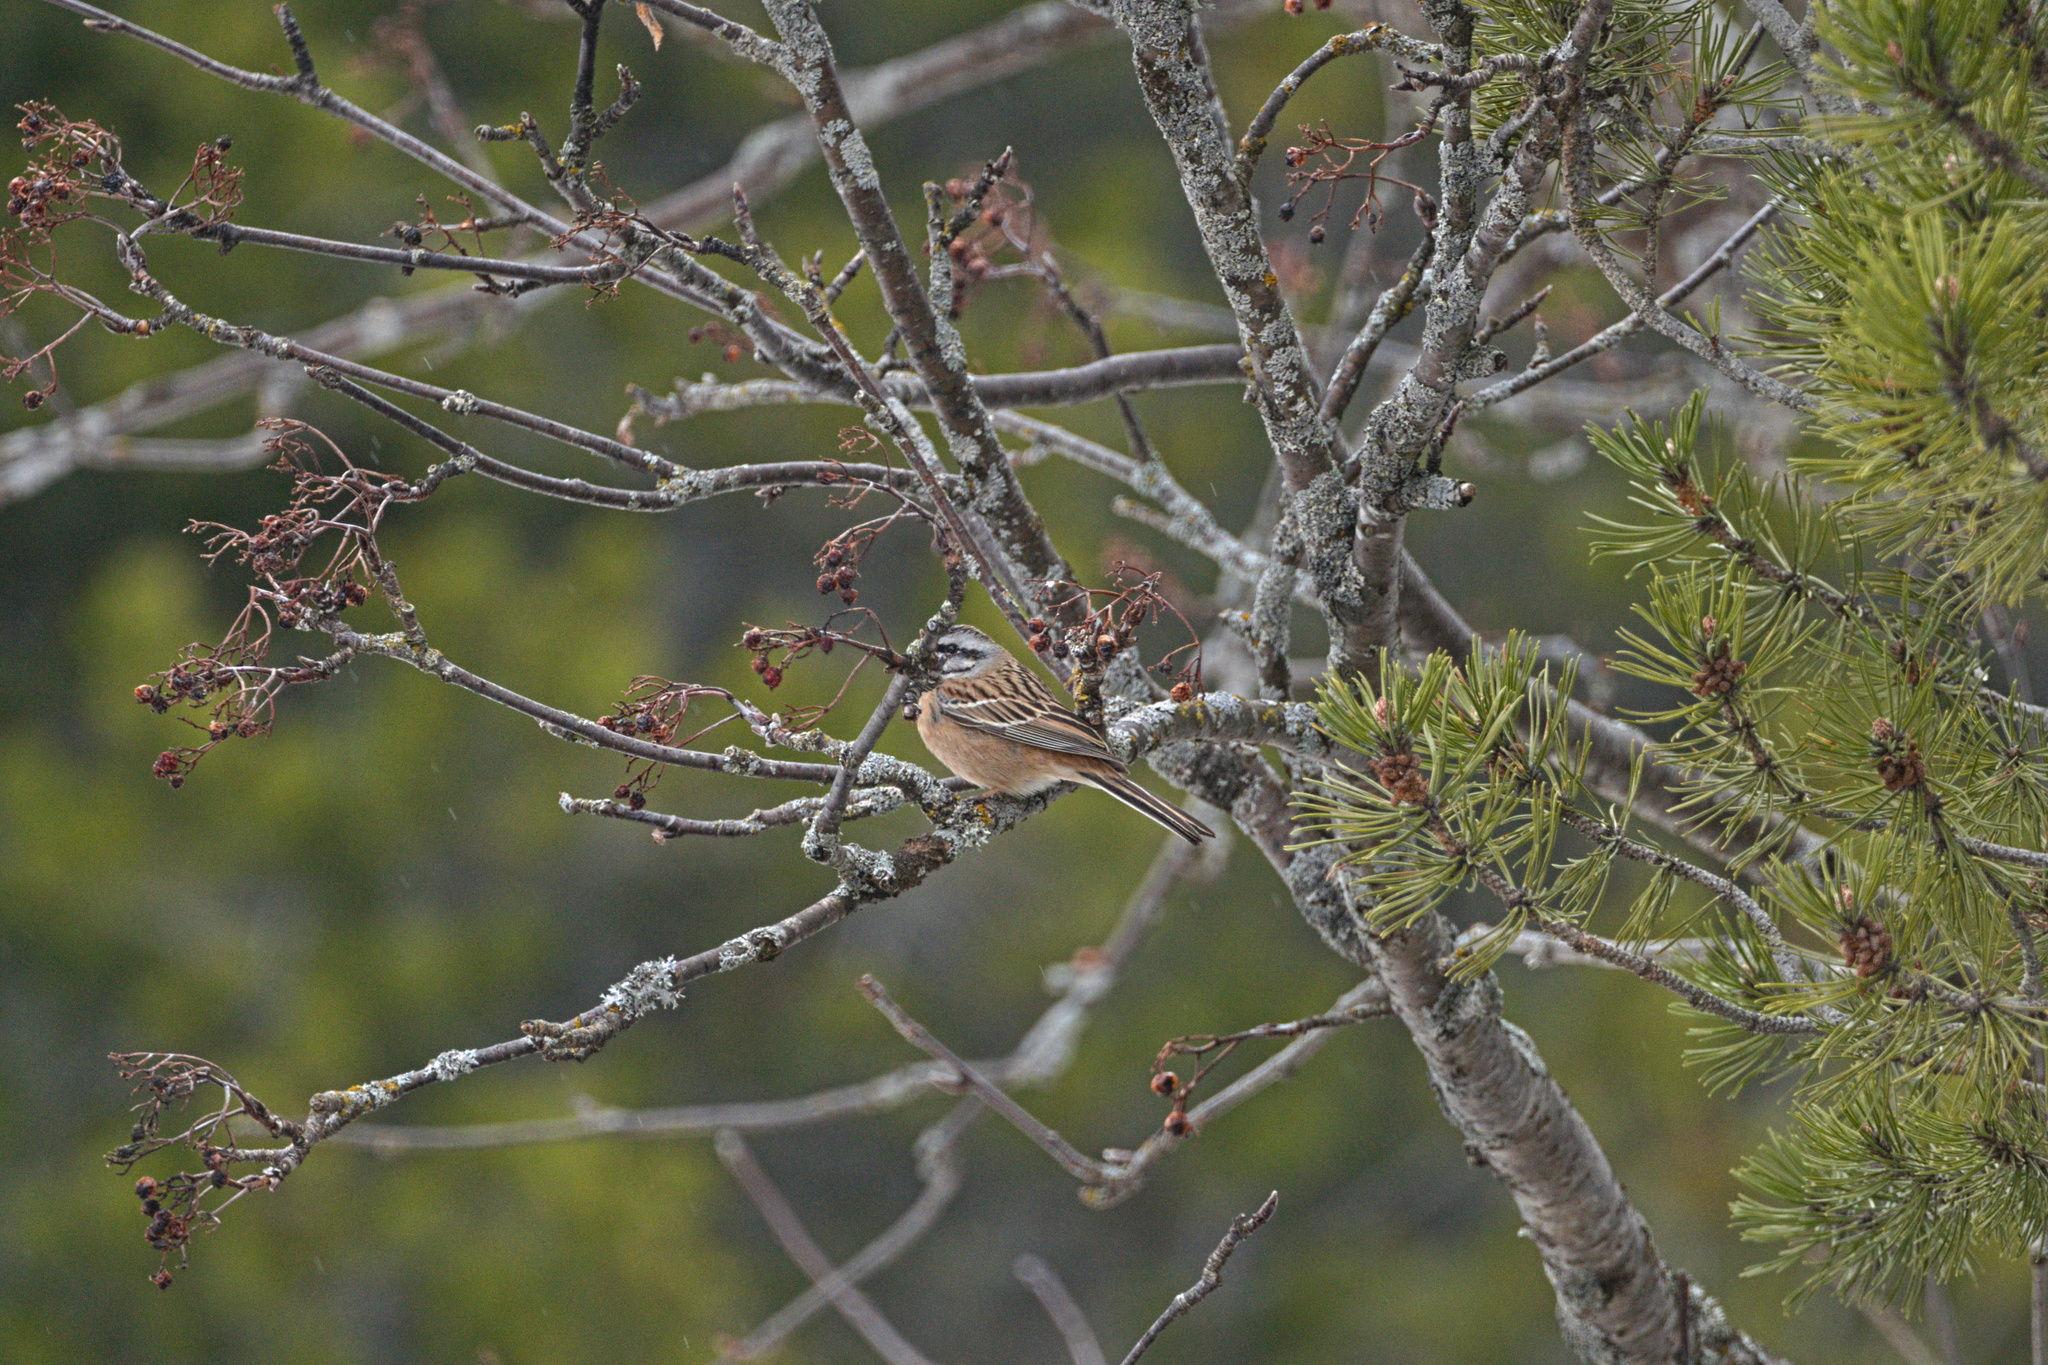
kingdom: Animalia
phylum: Chordata
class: Aves
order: Passeriformes
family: Emberizidae
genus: Emberiza
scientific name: Emberiza cia
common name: Rock bunting
